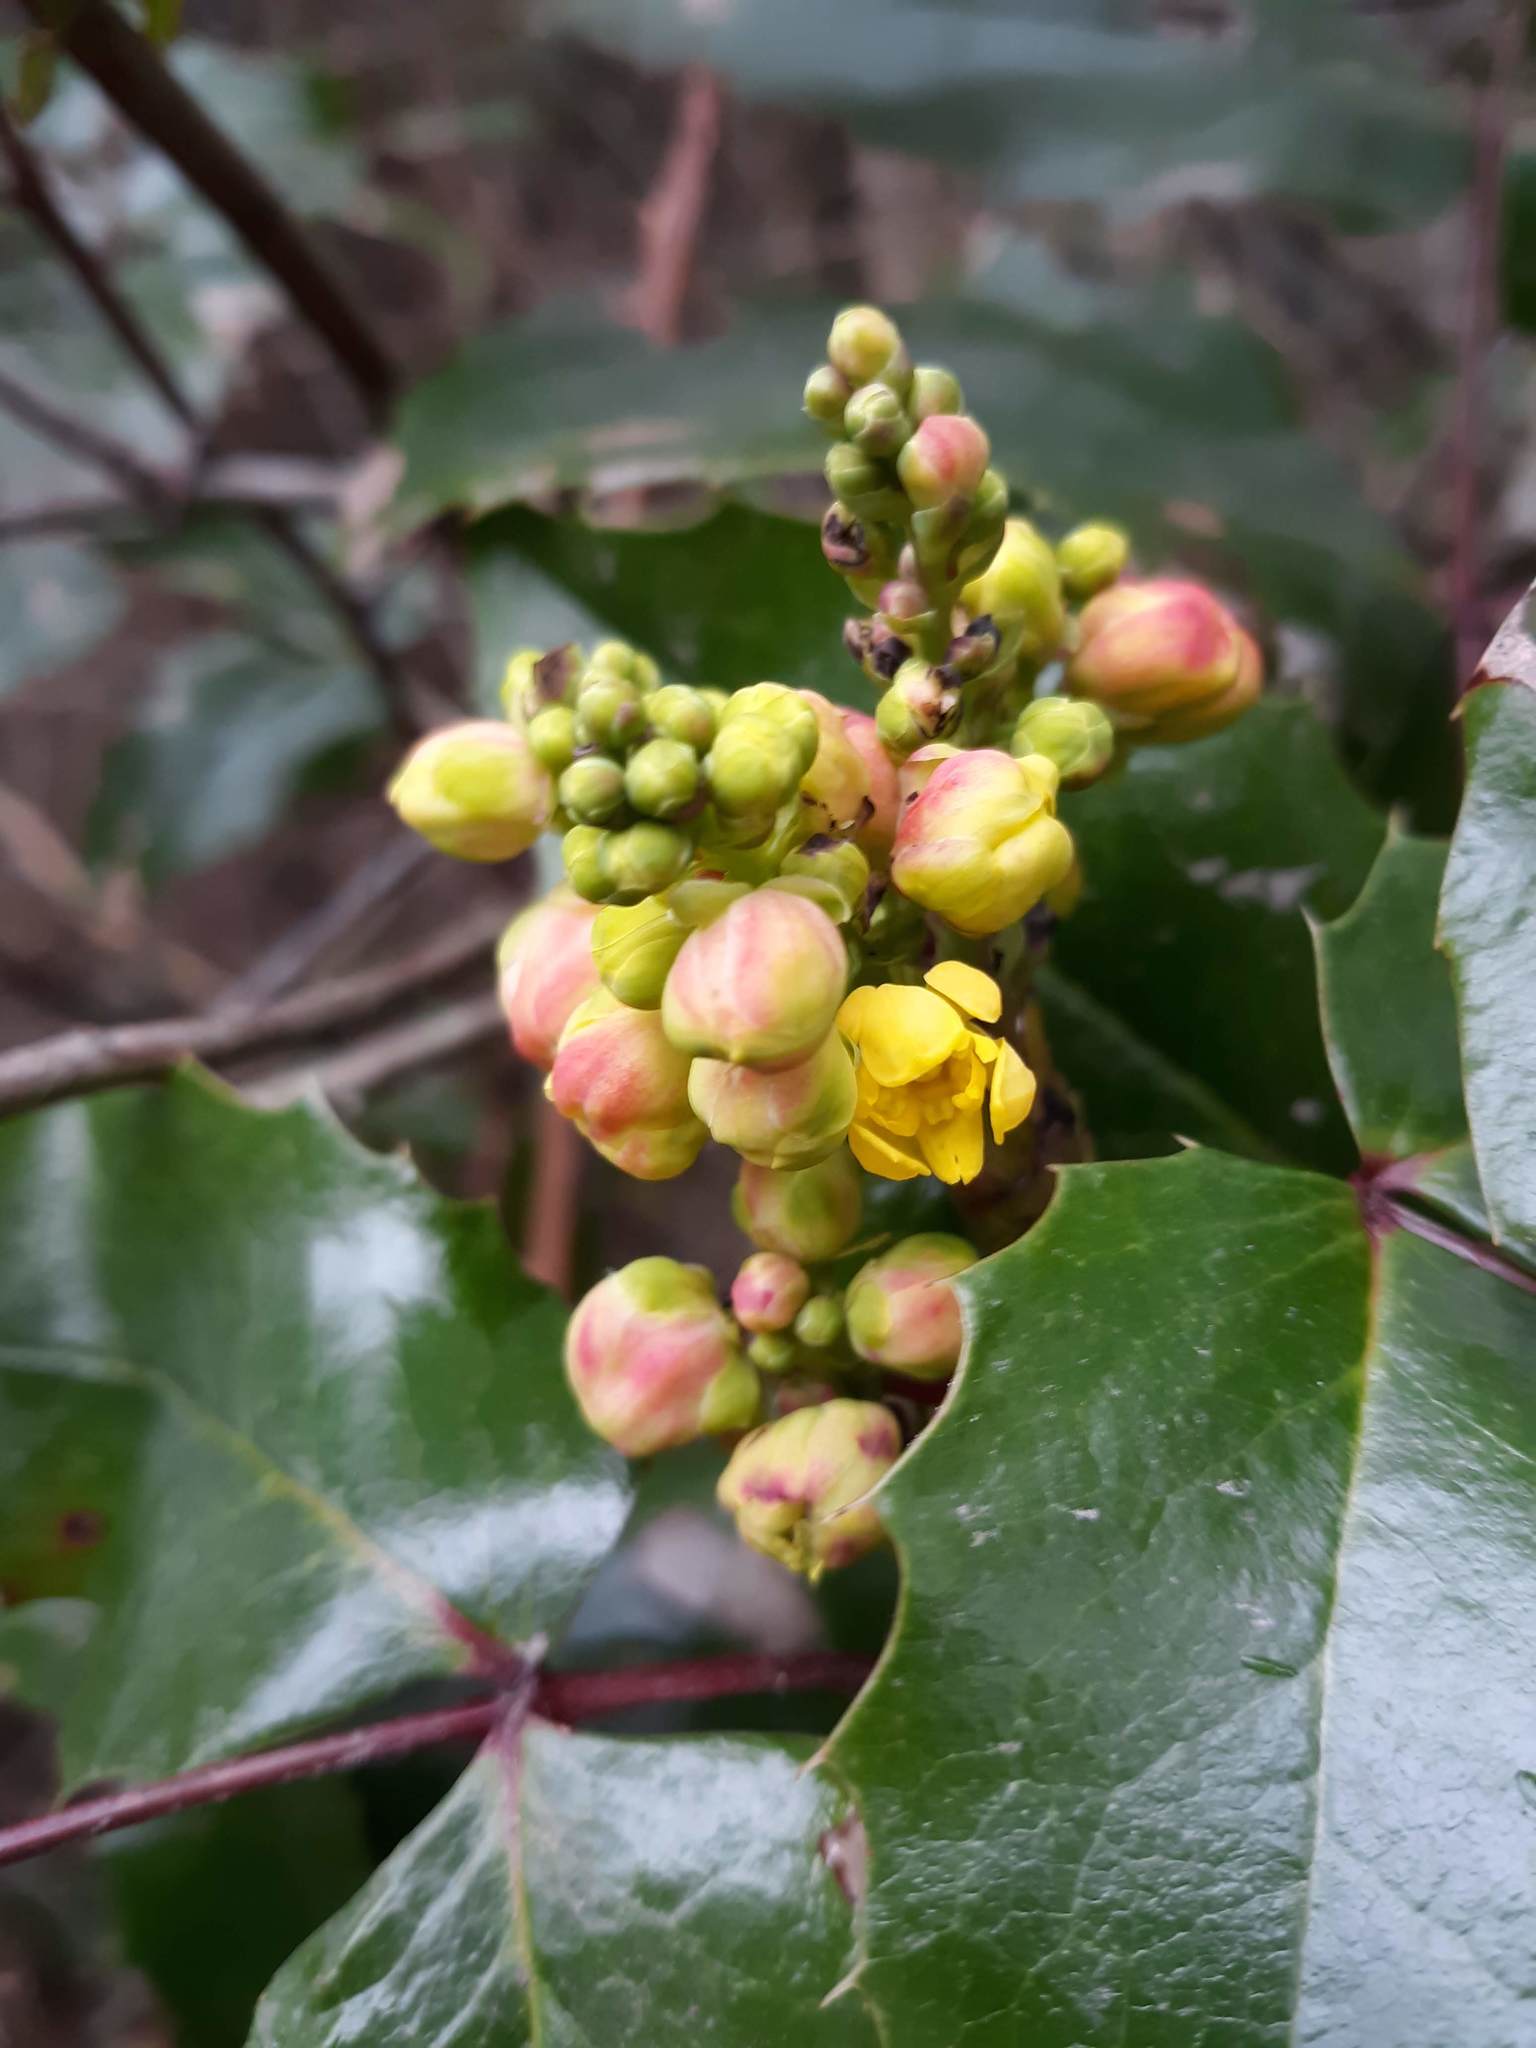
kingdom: Plantae
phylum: Tracheophyta
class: Magnoliopsida
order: Ranunculales
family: Berberidaceae
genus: Mahonia
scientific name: Mahonia aquifolium
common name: Oregon-grape
